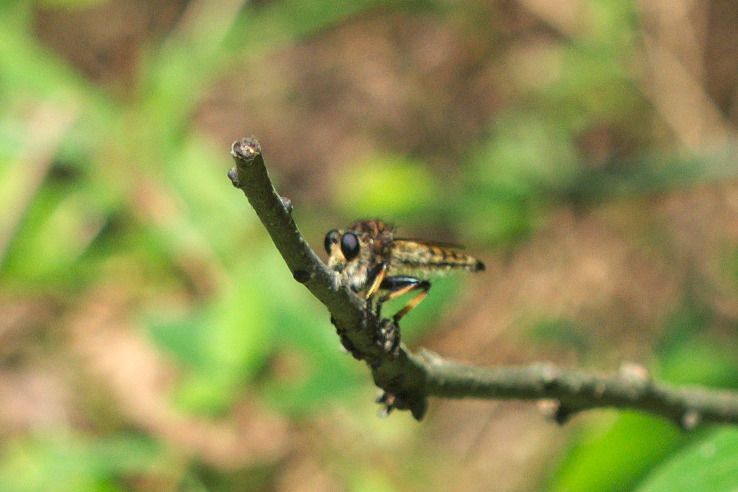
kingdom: Animalia
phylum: Arthropoda
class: Insecta
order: Diptera
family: Asilidae
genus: Promachus
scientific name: Promachus rufipes
